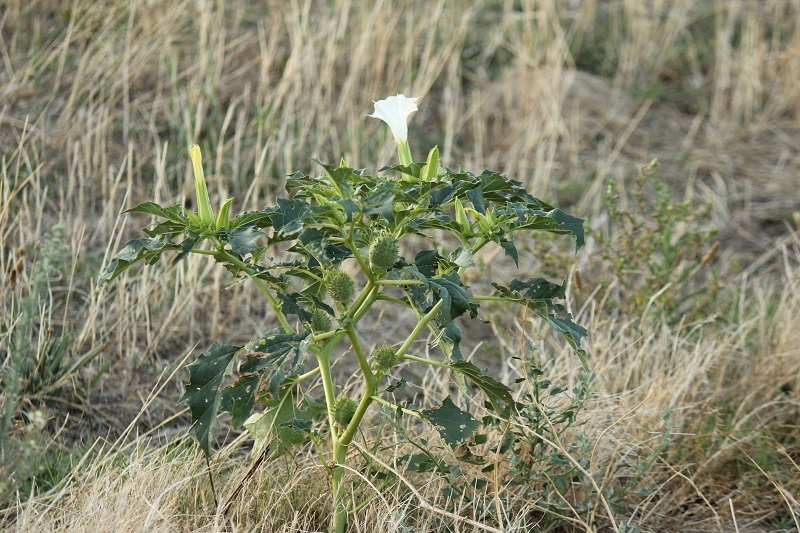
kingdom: Plantae
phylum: Tracheophyta
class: Magnoliopsida
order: Solanales
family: Solanaceae
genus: Datura
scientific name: Datura stramonium
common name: Thorn-apple
